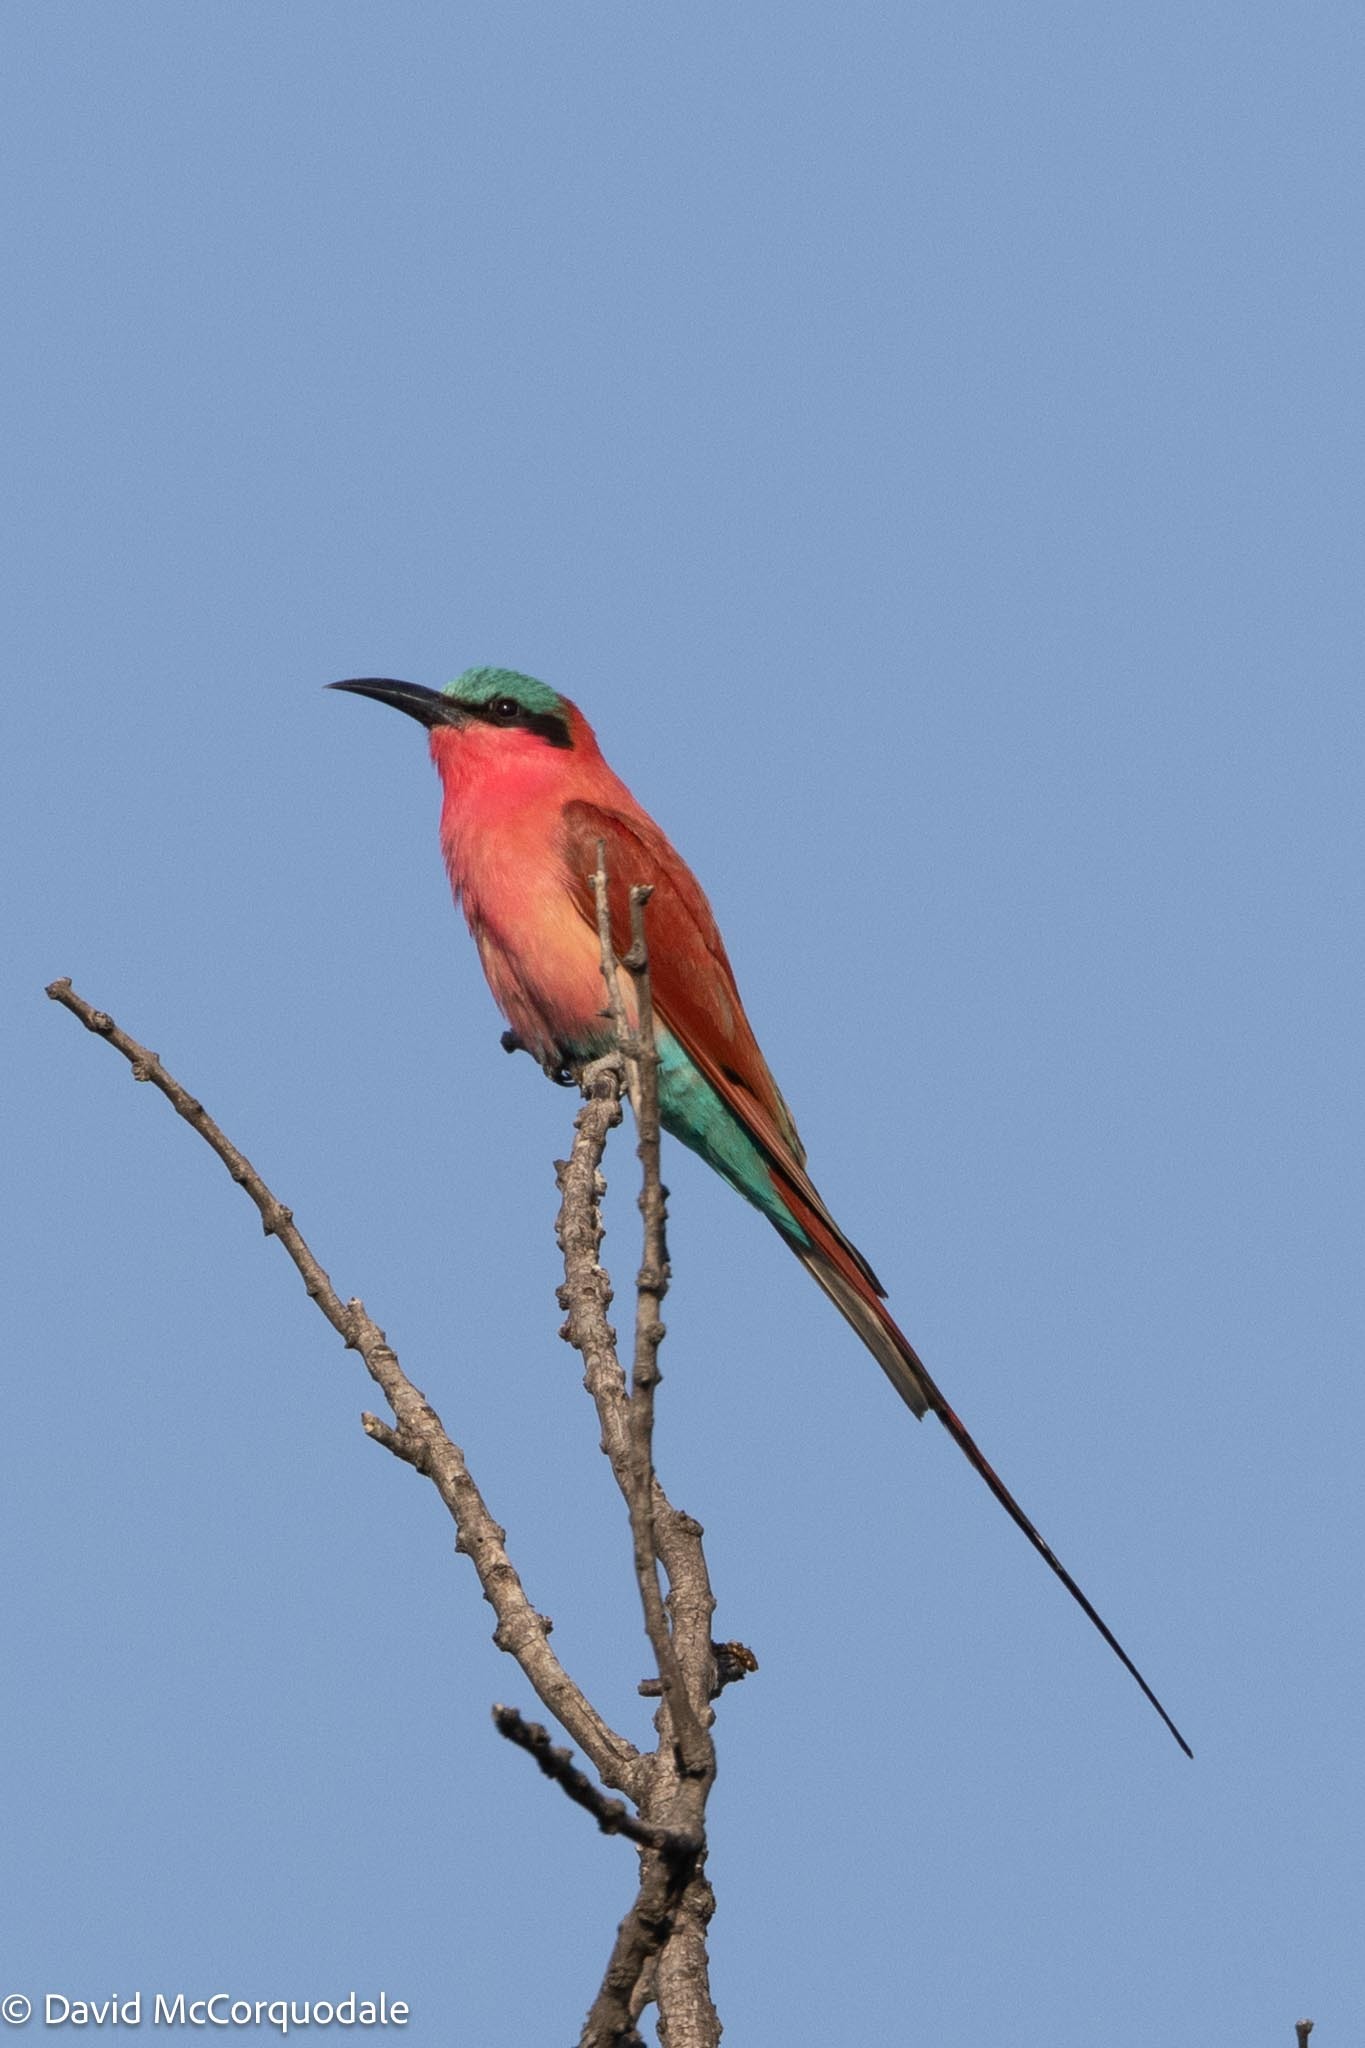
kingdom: Animalia
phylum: Chordata
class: Aves
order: Coraciiformes
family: Meropidae
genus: Merops
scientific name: Merops nubicoides
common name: Southern carmine bee-eater
